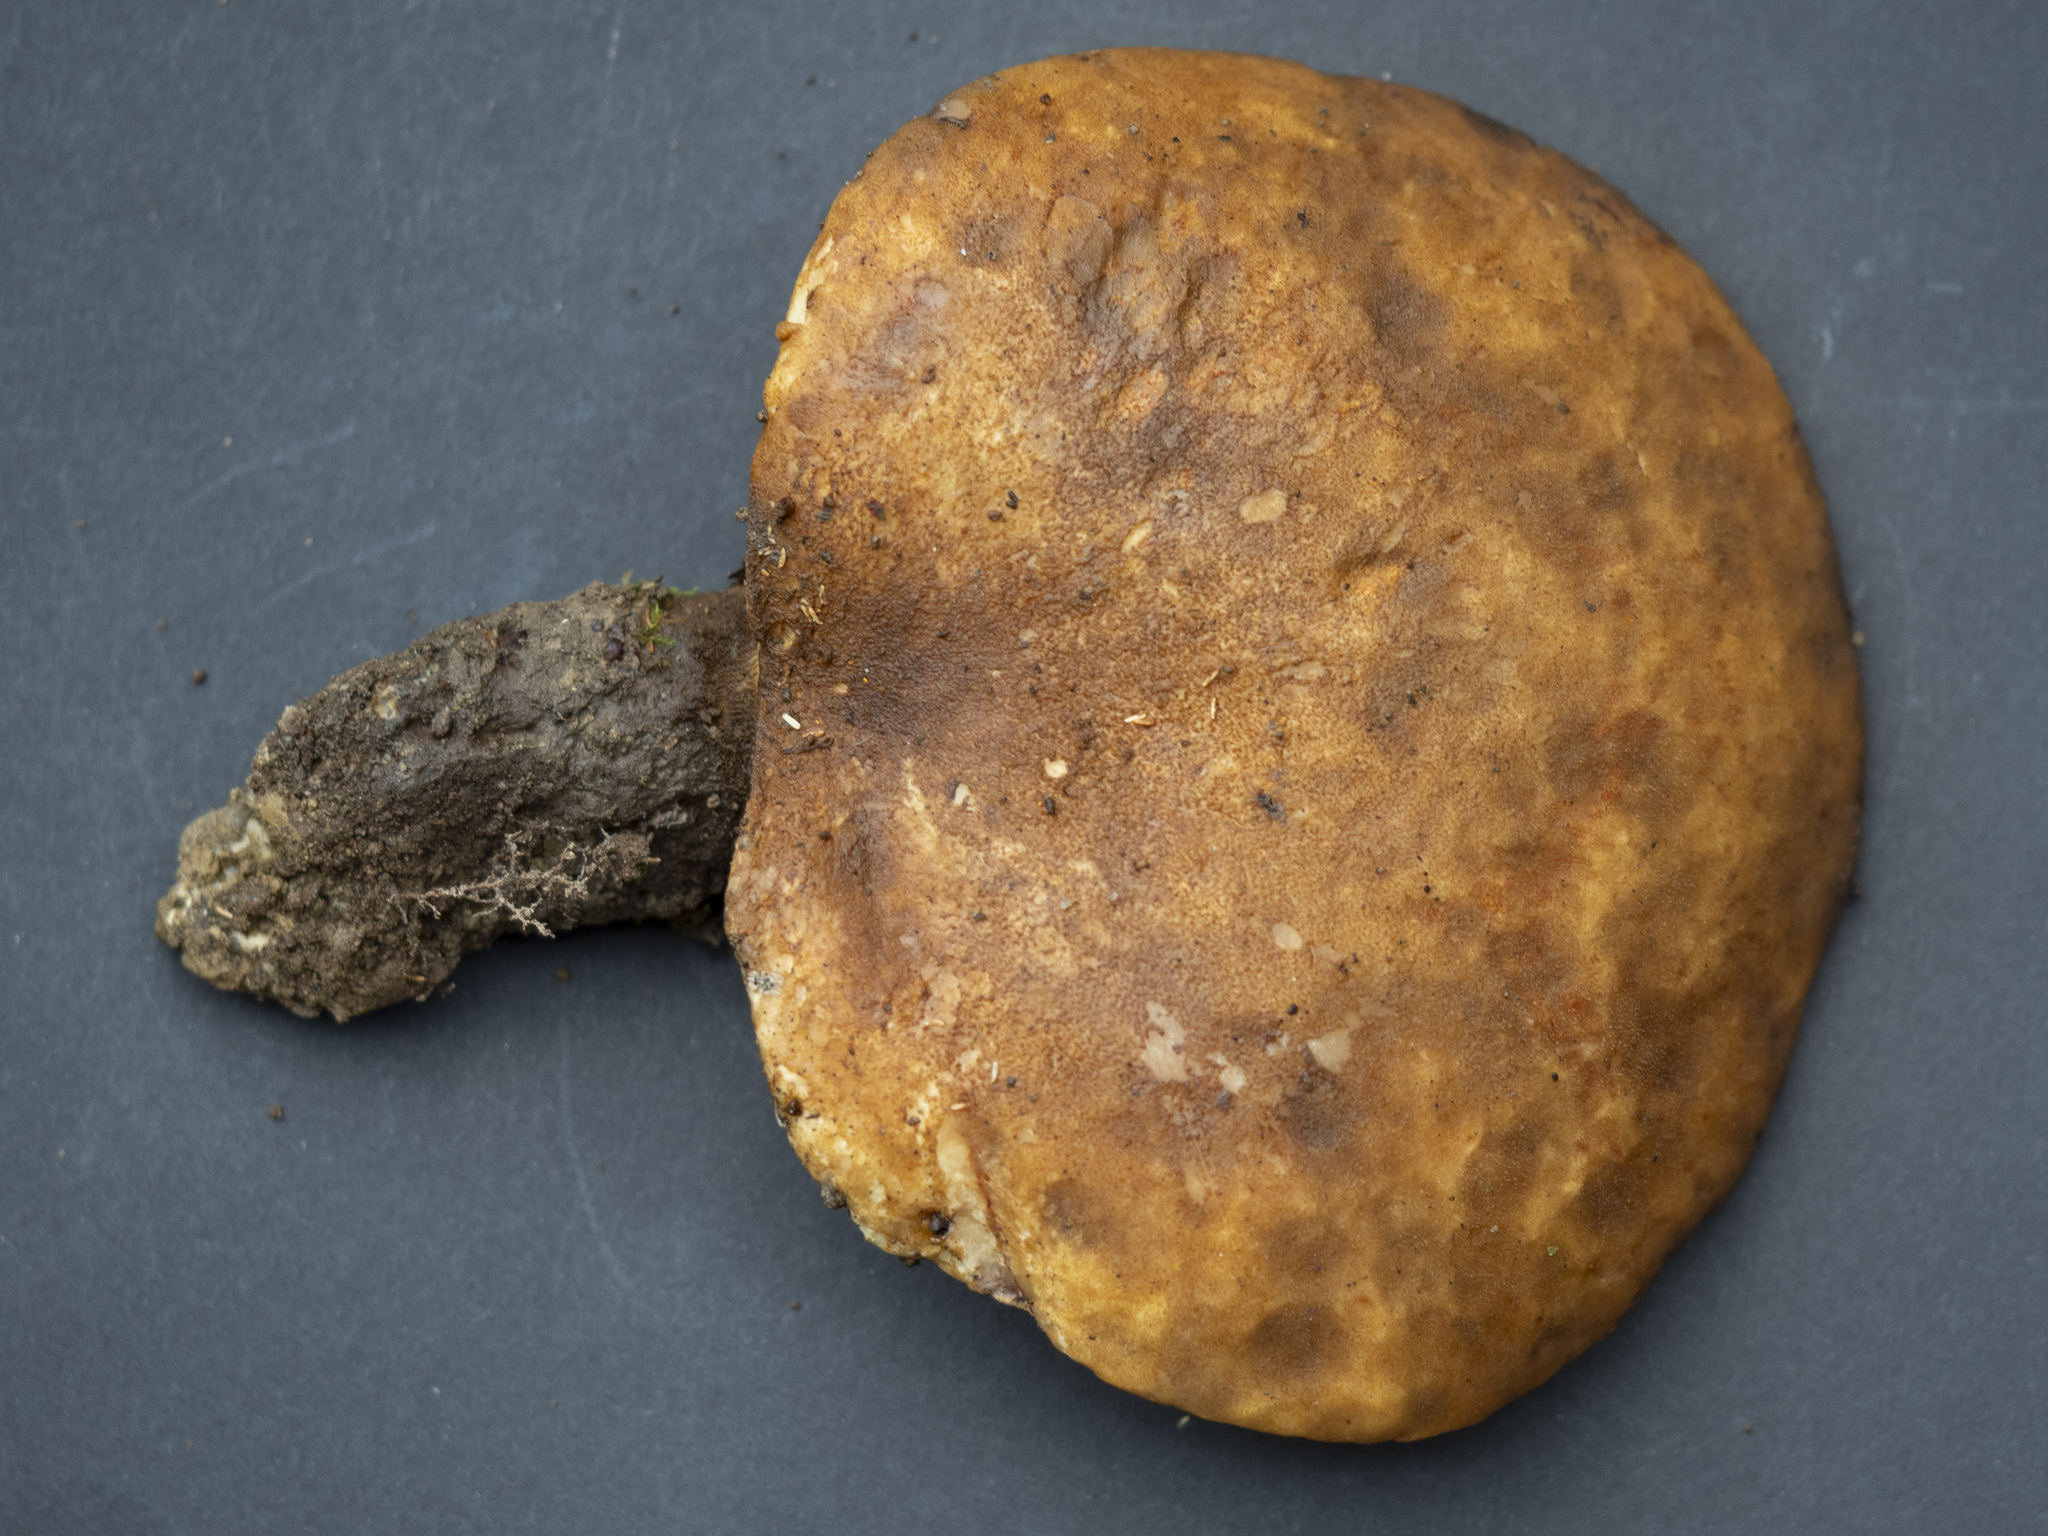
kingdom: Fungi
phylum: Basidiomycota
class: Agaricomycetes
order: Boletales
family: Tapinellaceae
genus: Tapinella
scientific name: Tapinella atrotomentosa
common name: Velvet rollrim
